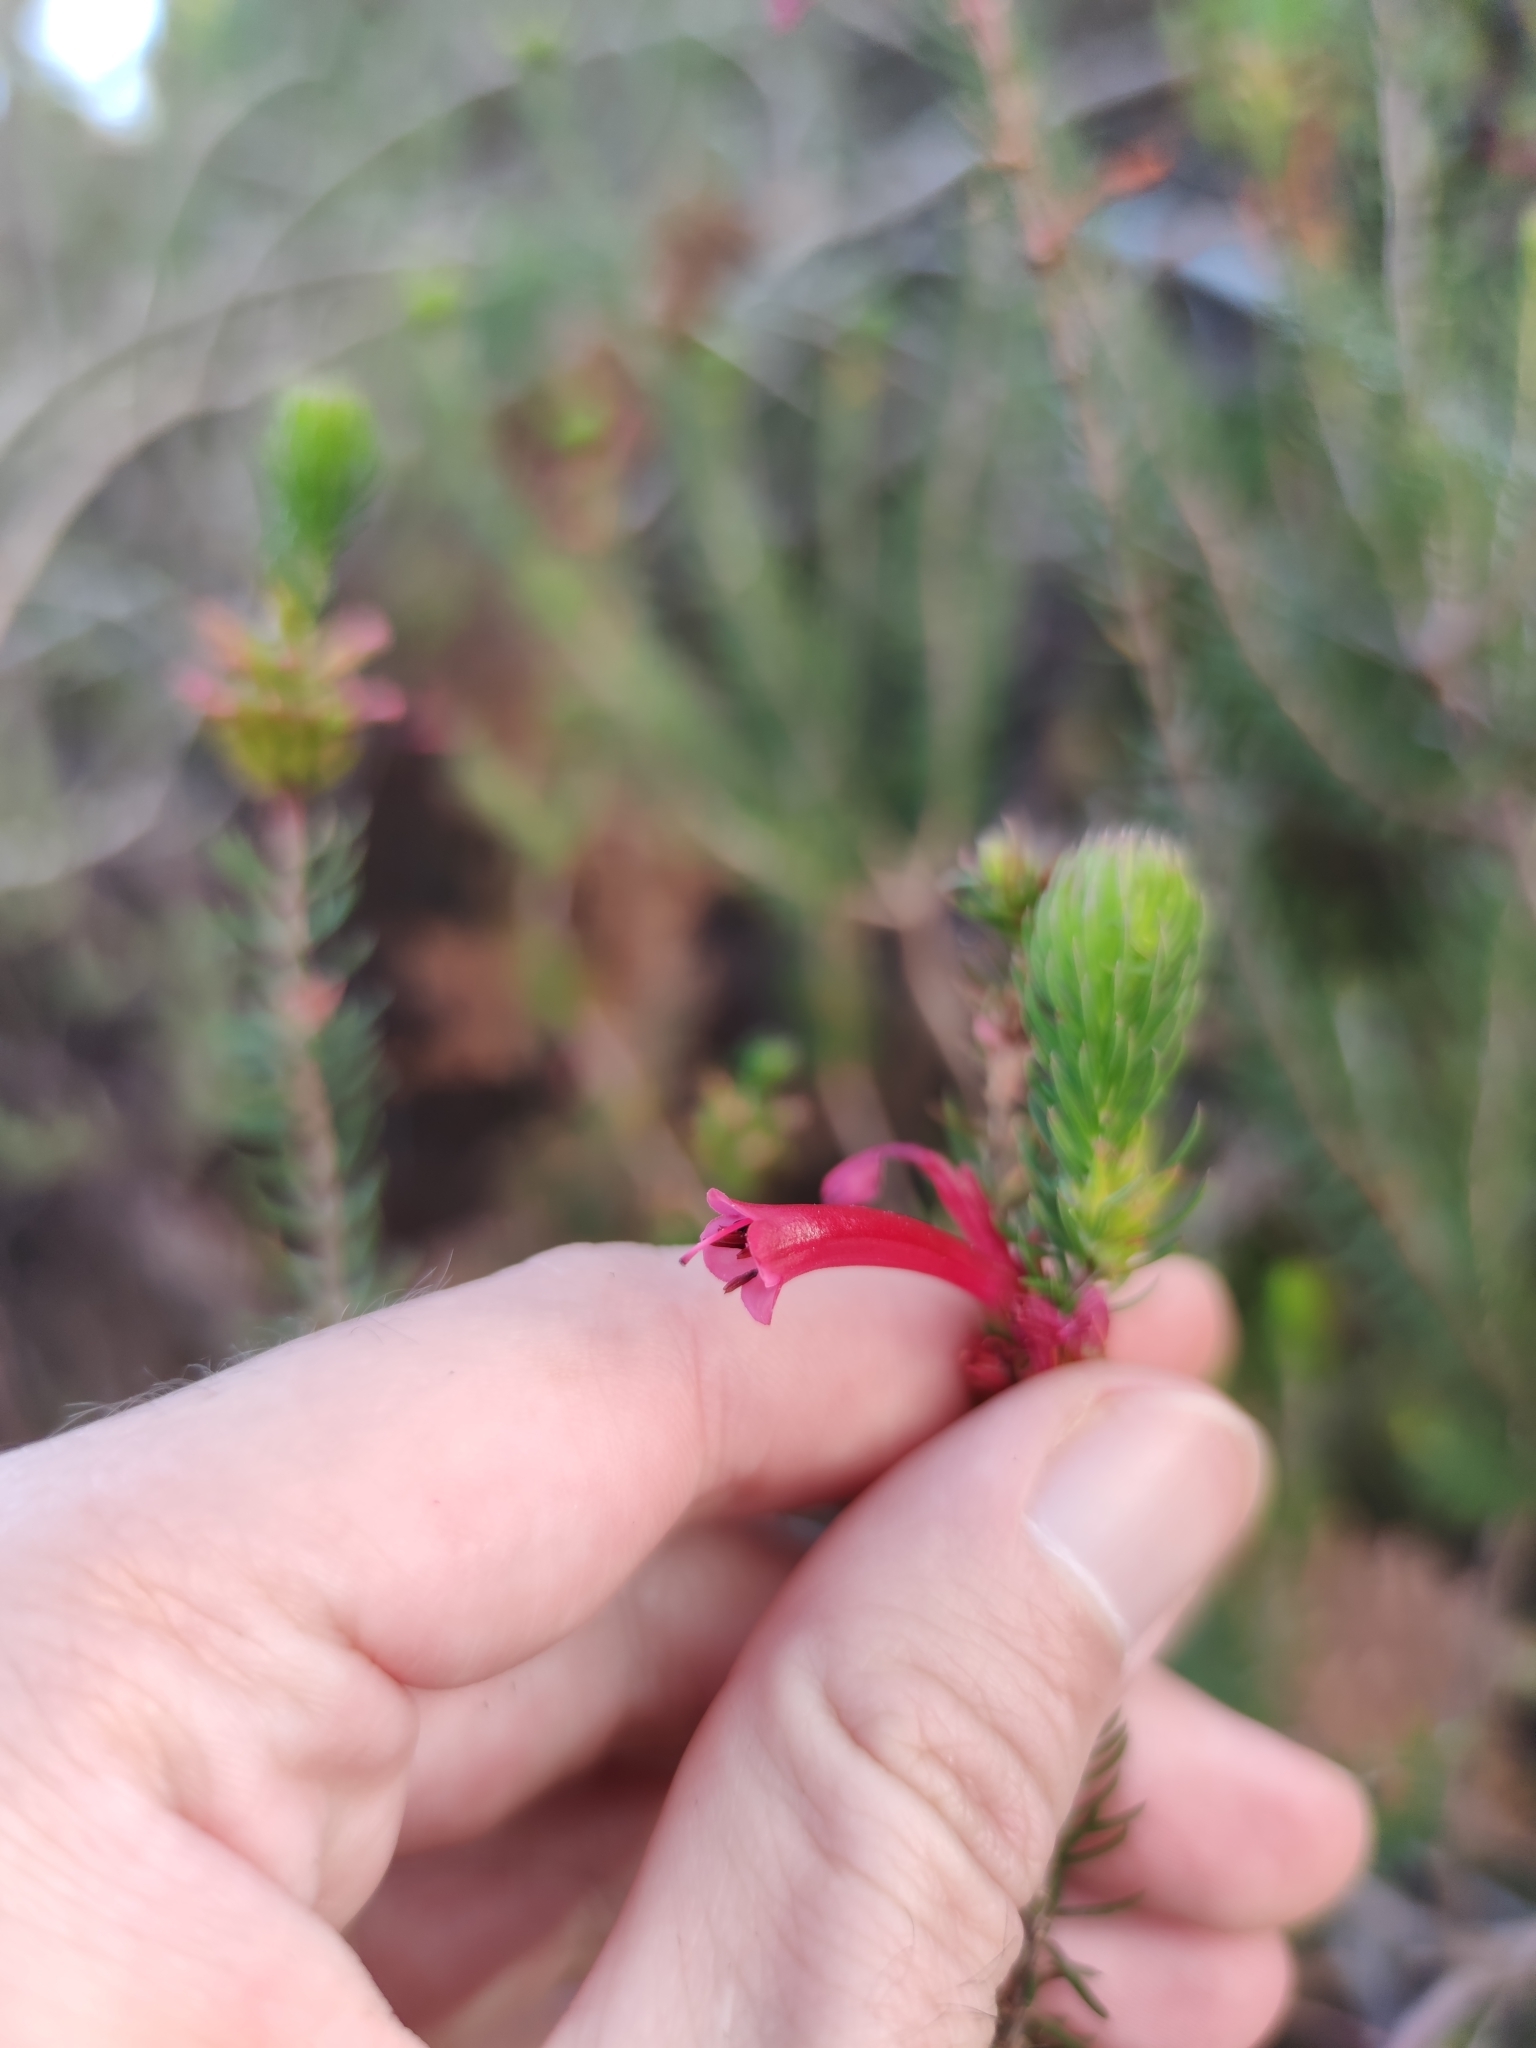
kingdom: Plantae
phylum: Tracheophyta
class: Magnoliopsida
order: Ericales
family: Ericaceae
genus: Erica
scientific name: Erica abietina
